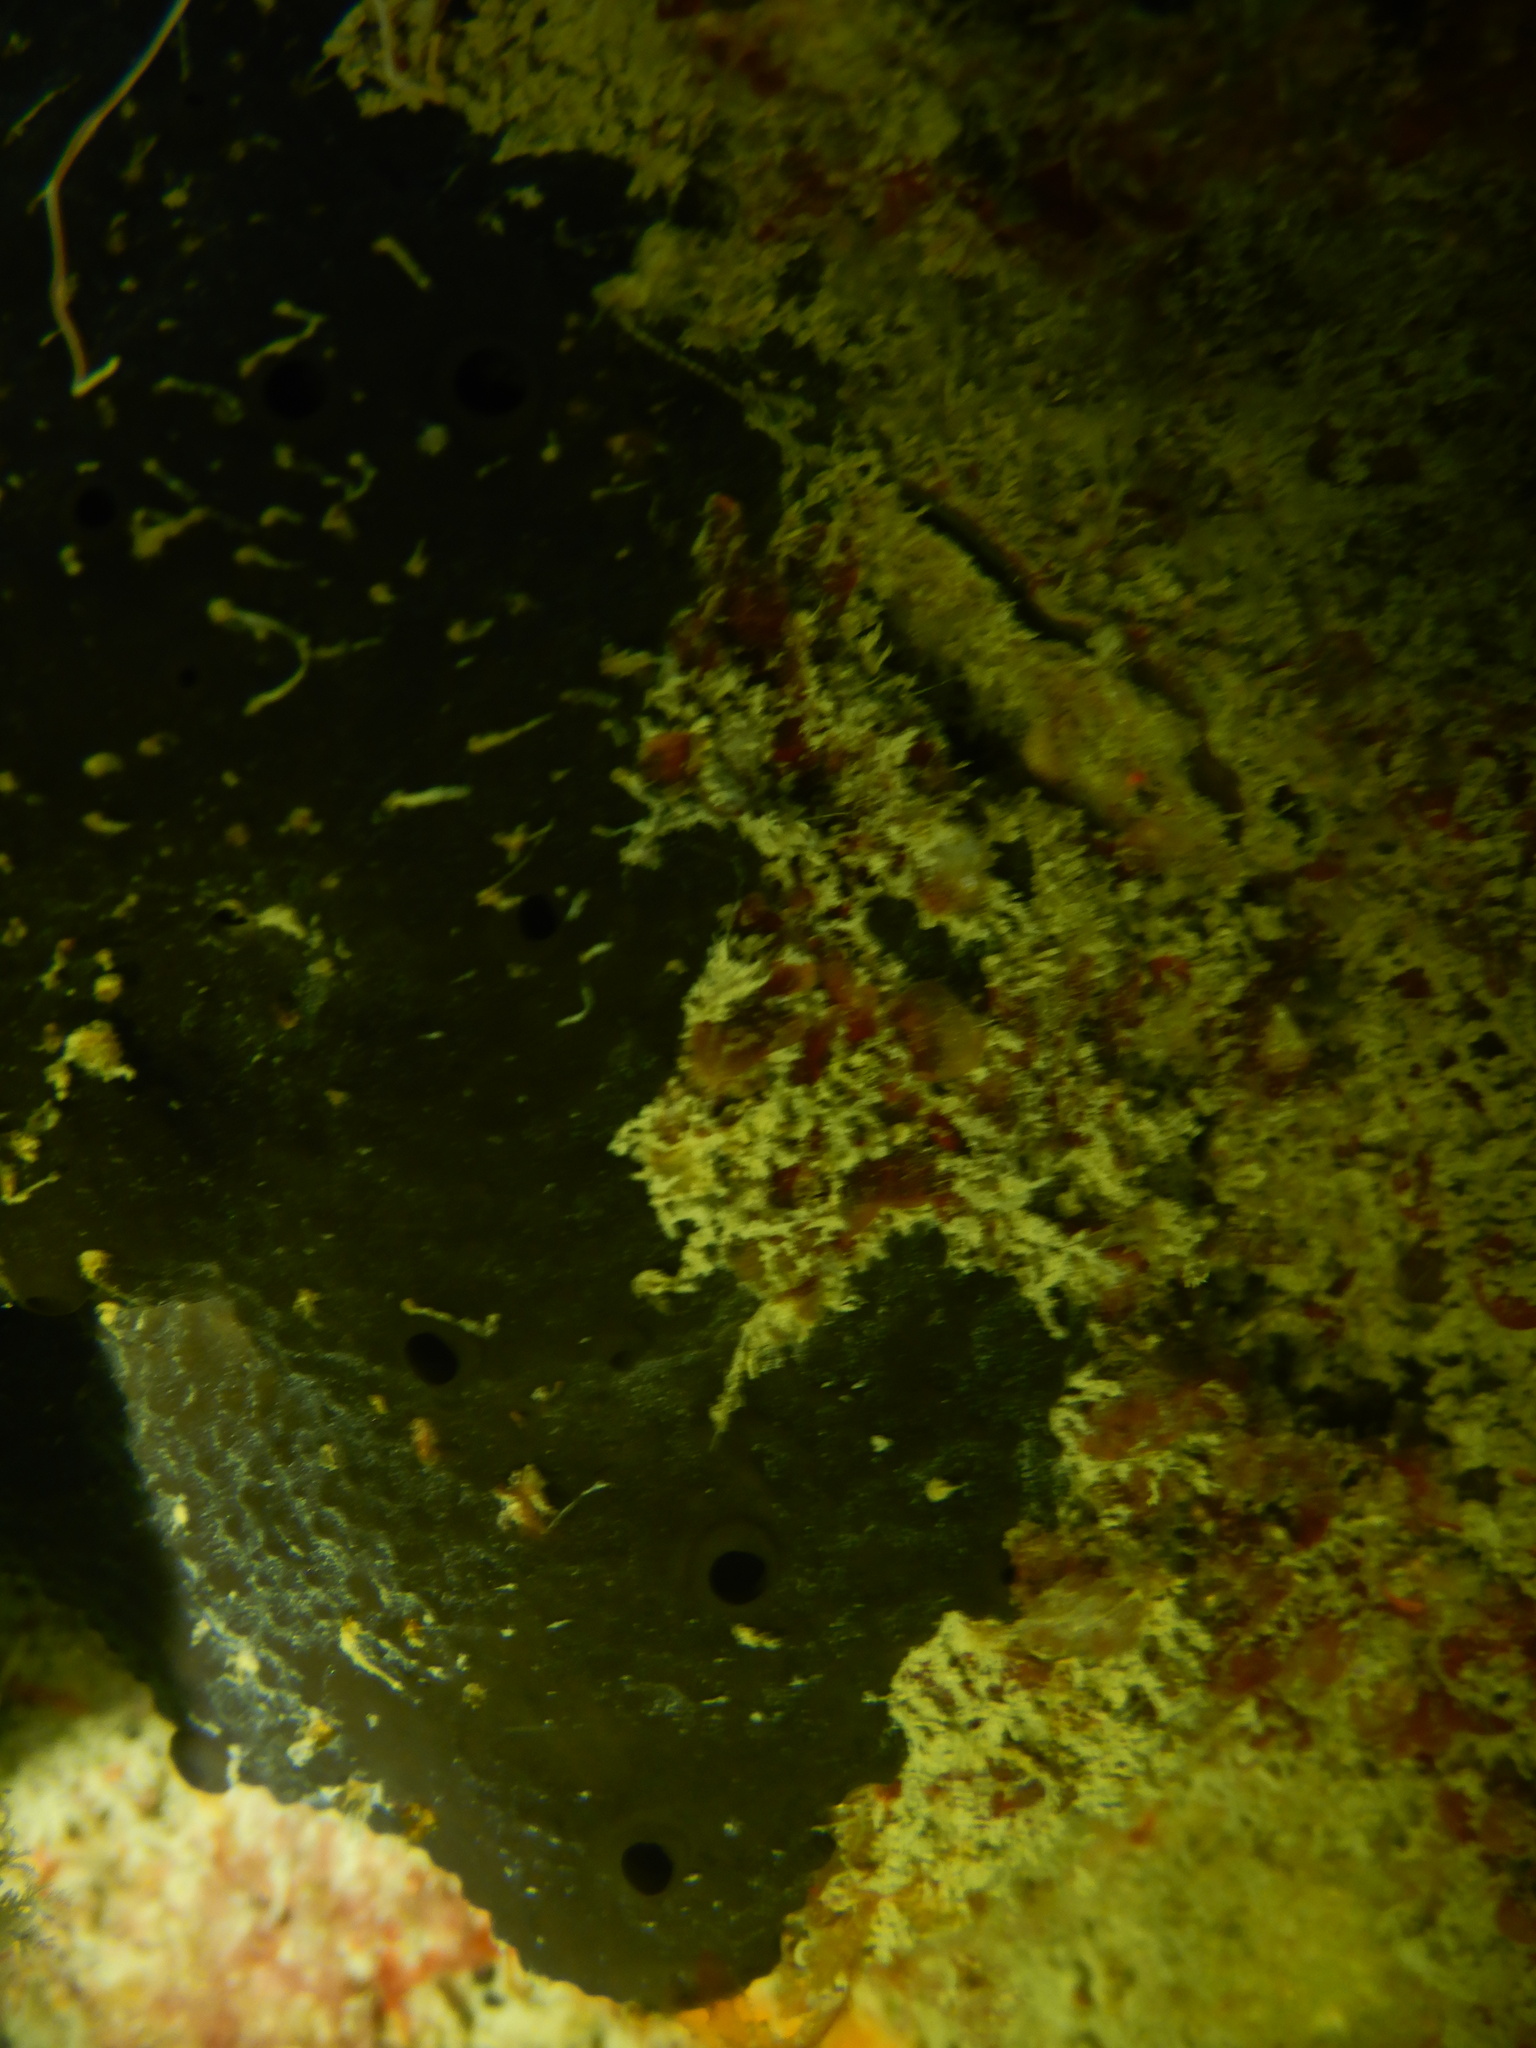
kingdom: Animalia
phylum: Porifera
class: Demospongiae
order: Dictyoceratida
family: Irciniidae
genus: Sarcotragus
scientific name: Sarcotragus spinosulus
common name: Black leather sponge
